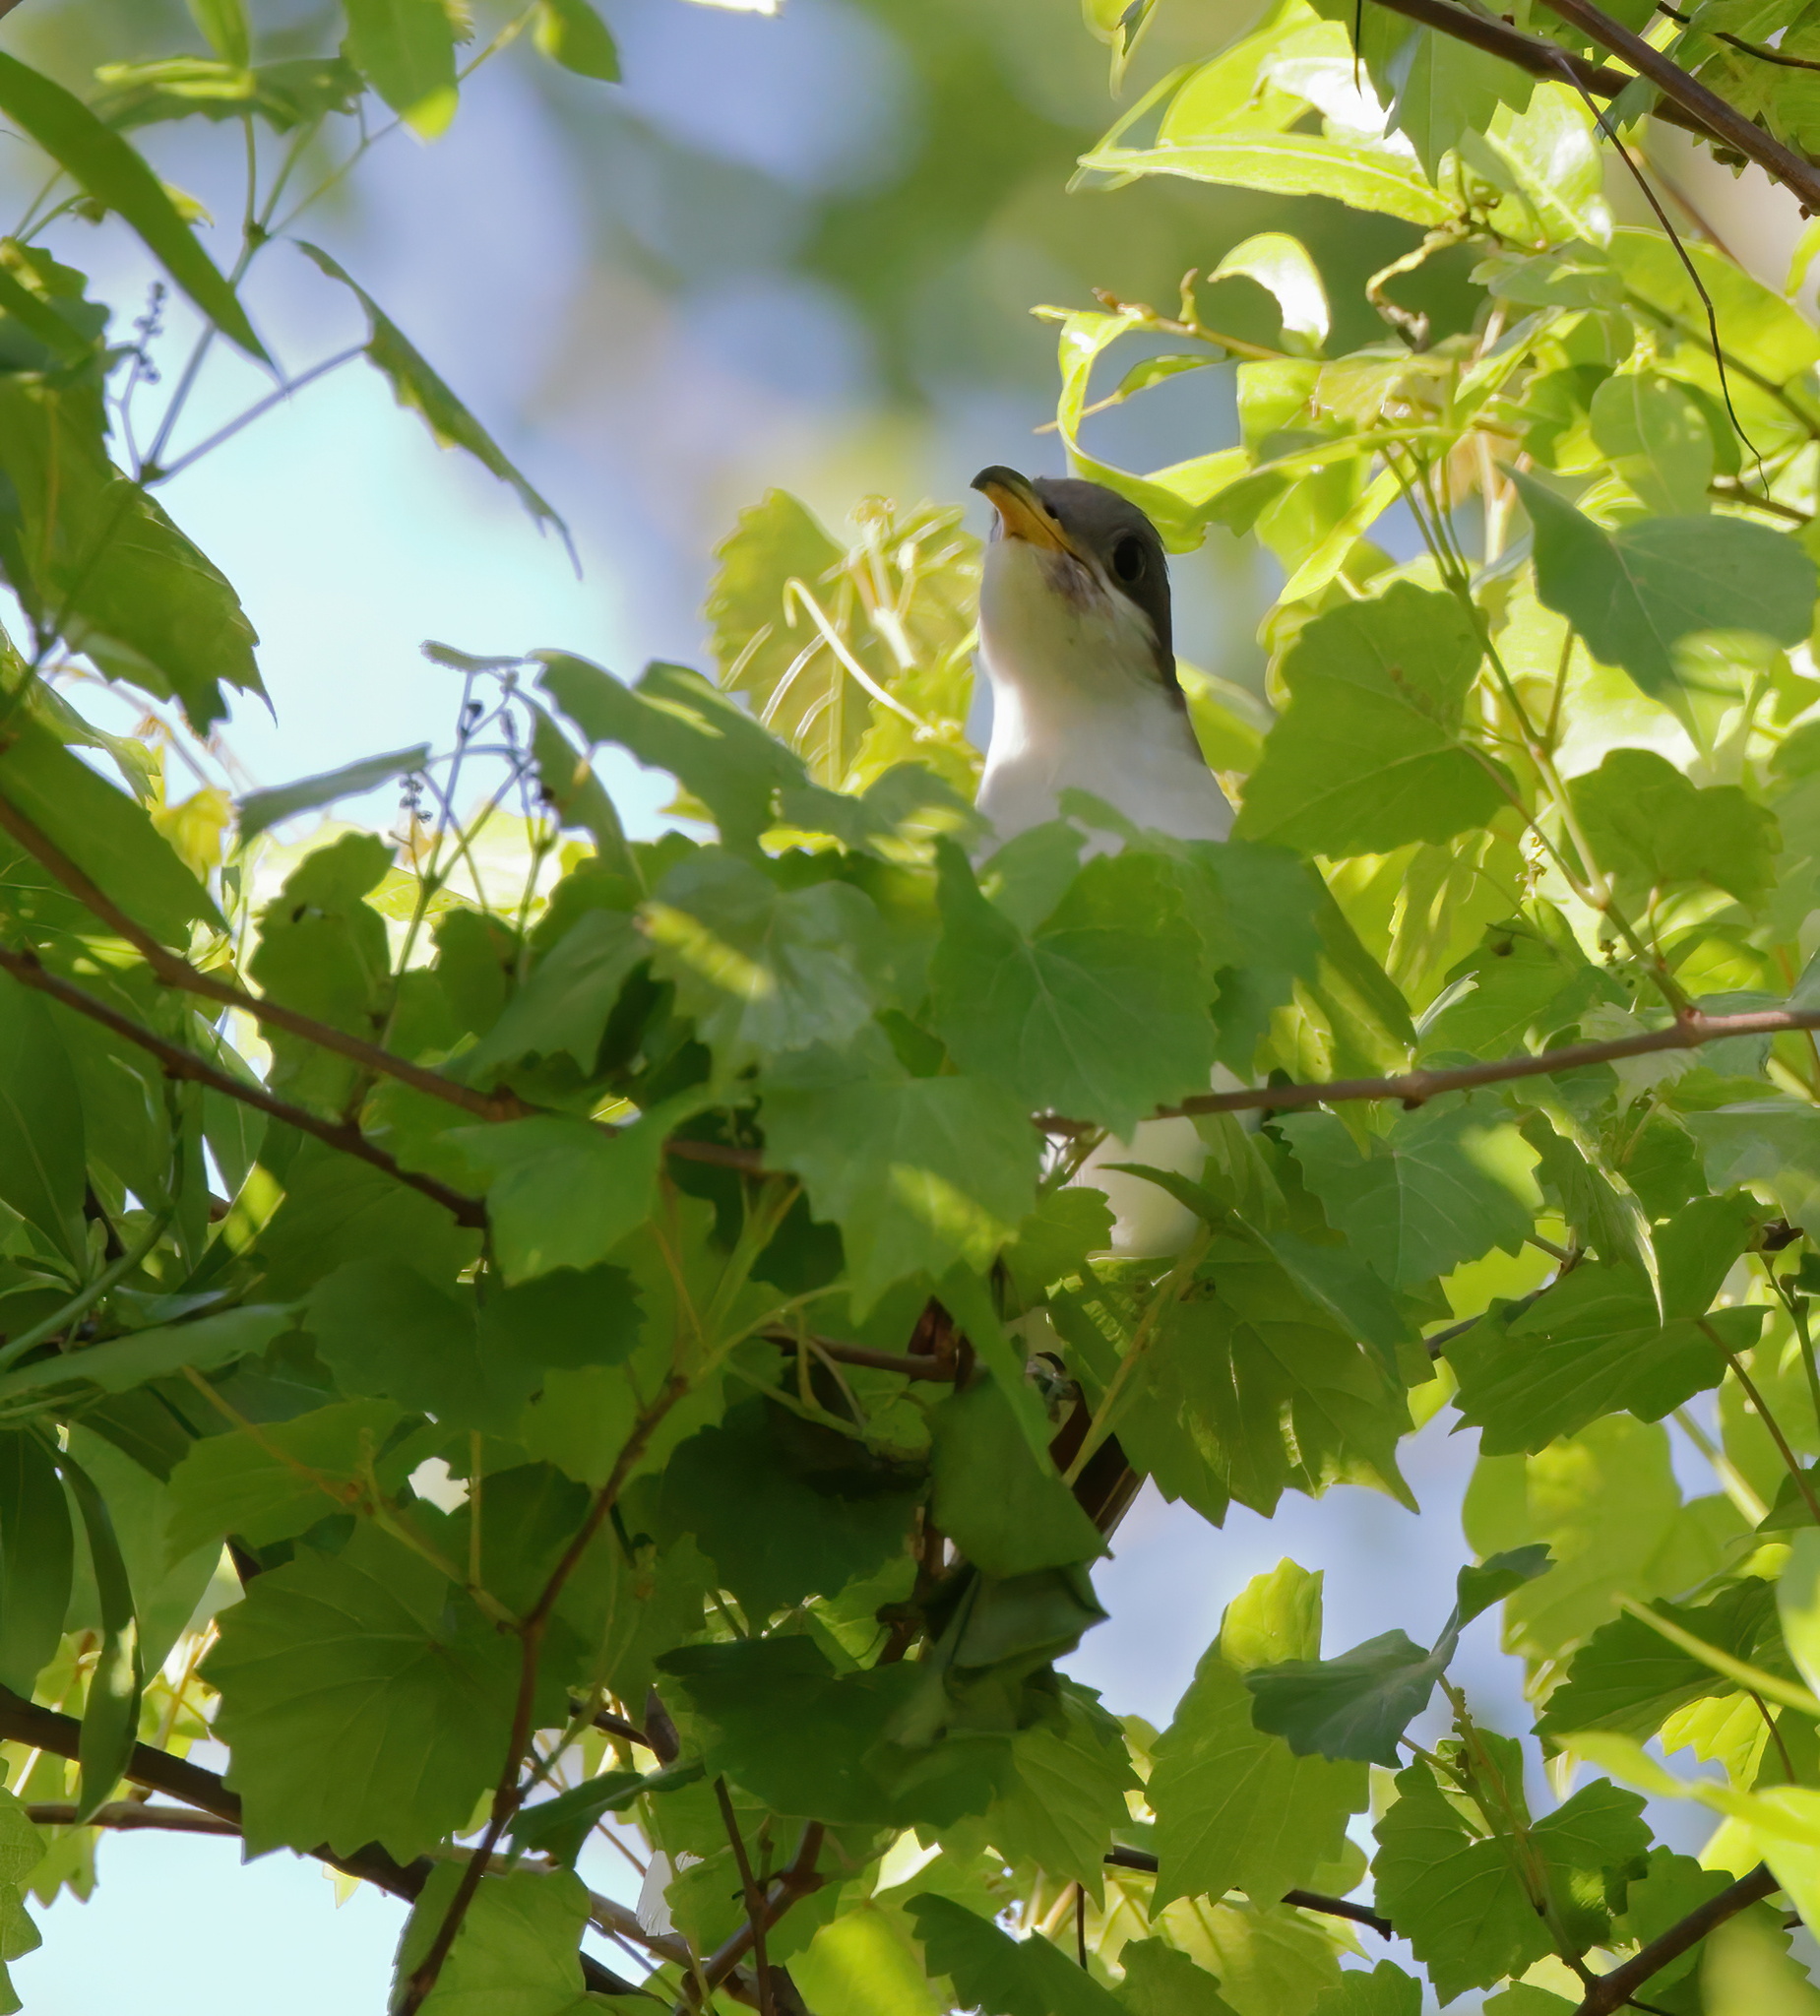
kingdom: Animalia
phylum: Chordata
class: Aves
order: Cuculiformes
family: Cuculidae
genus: Coccyzus
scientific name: Coccyzus americanus
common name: Yellow-billed cuckoo
